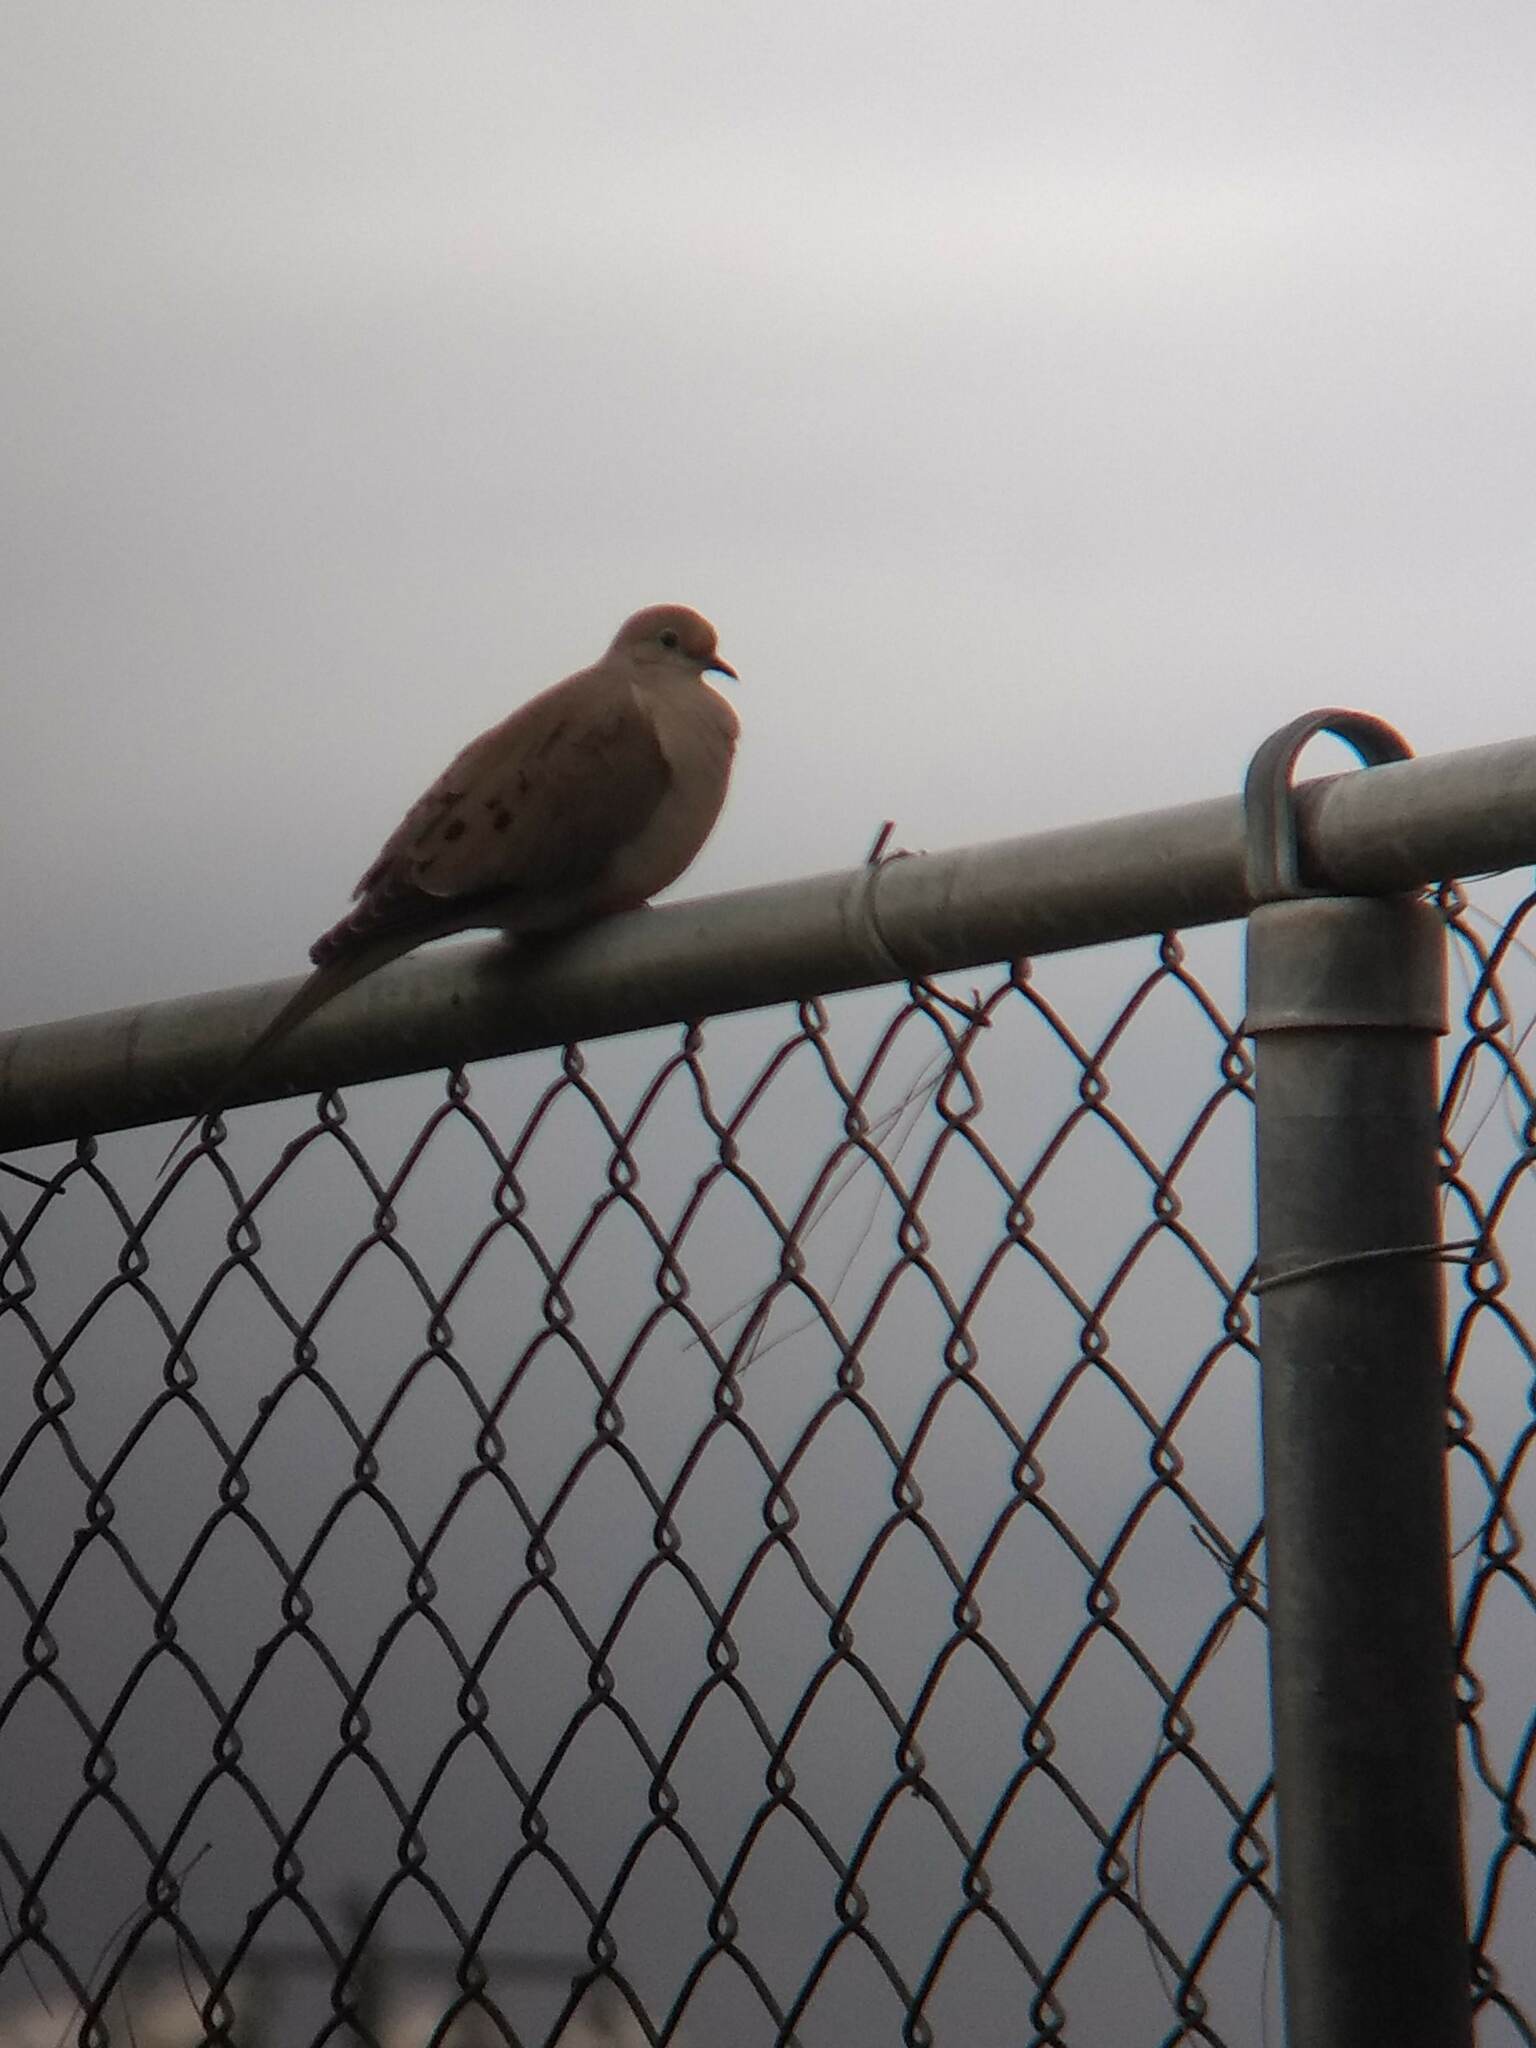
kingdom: Animalia
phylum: Chordata
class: Aves
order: Columbiformes
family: Columbidae
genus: Zenaida
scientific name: Zenaida macroura
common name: Mourning dove
